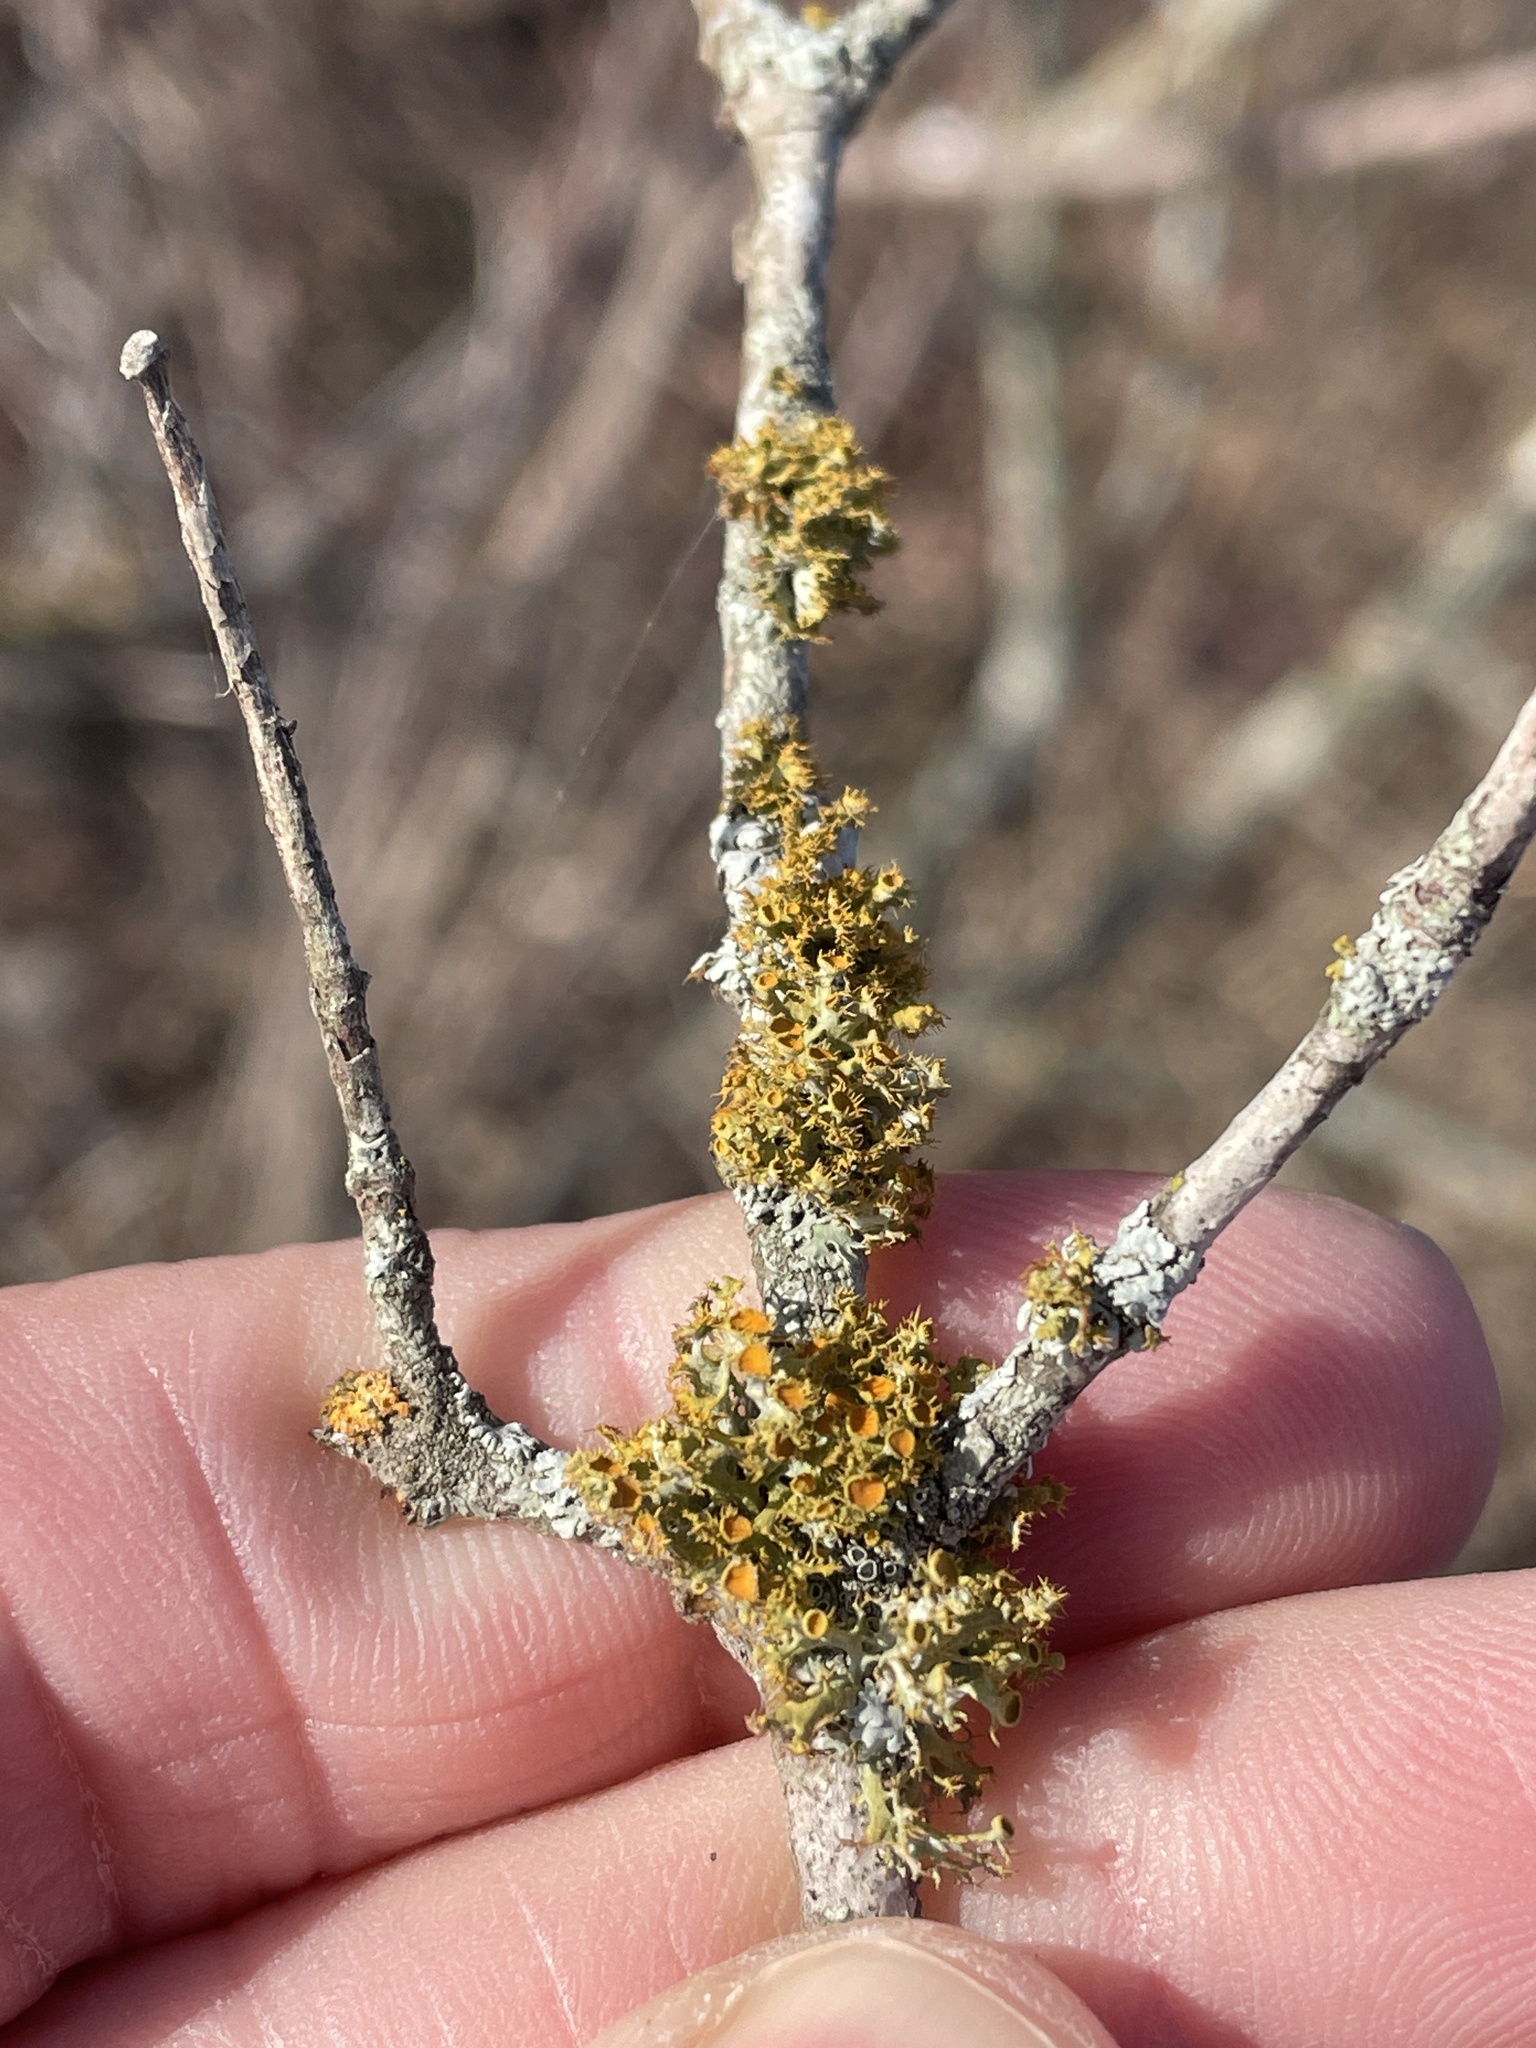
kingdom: Fungi
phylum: Ascomycota
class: Lecanoromycetes
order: Teloschistales
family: Teloschistaceae
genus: Niorma
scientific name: Niorma chrysophthalma
